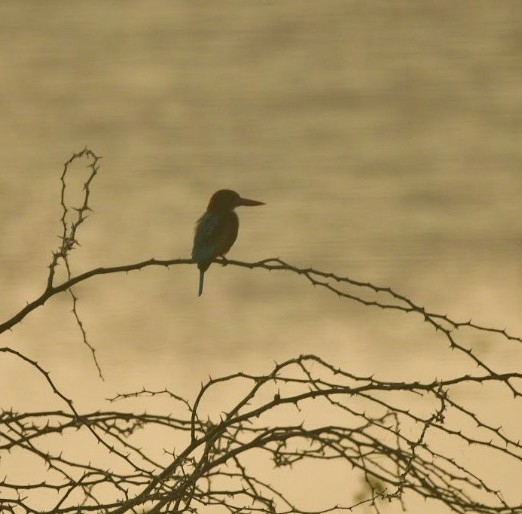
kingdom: Animalia
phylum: Chordata
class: Aves
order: Coraciiformes
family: Alcedinidae
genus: Halcyon
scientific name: Halcyon smyrnensis
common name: White-throated kingfisher
